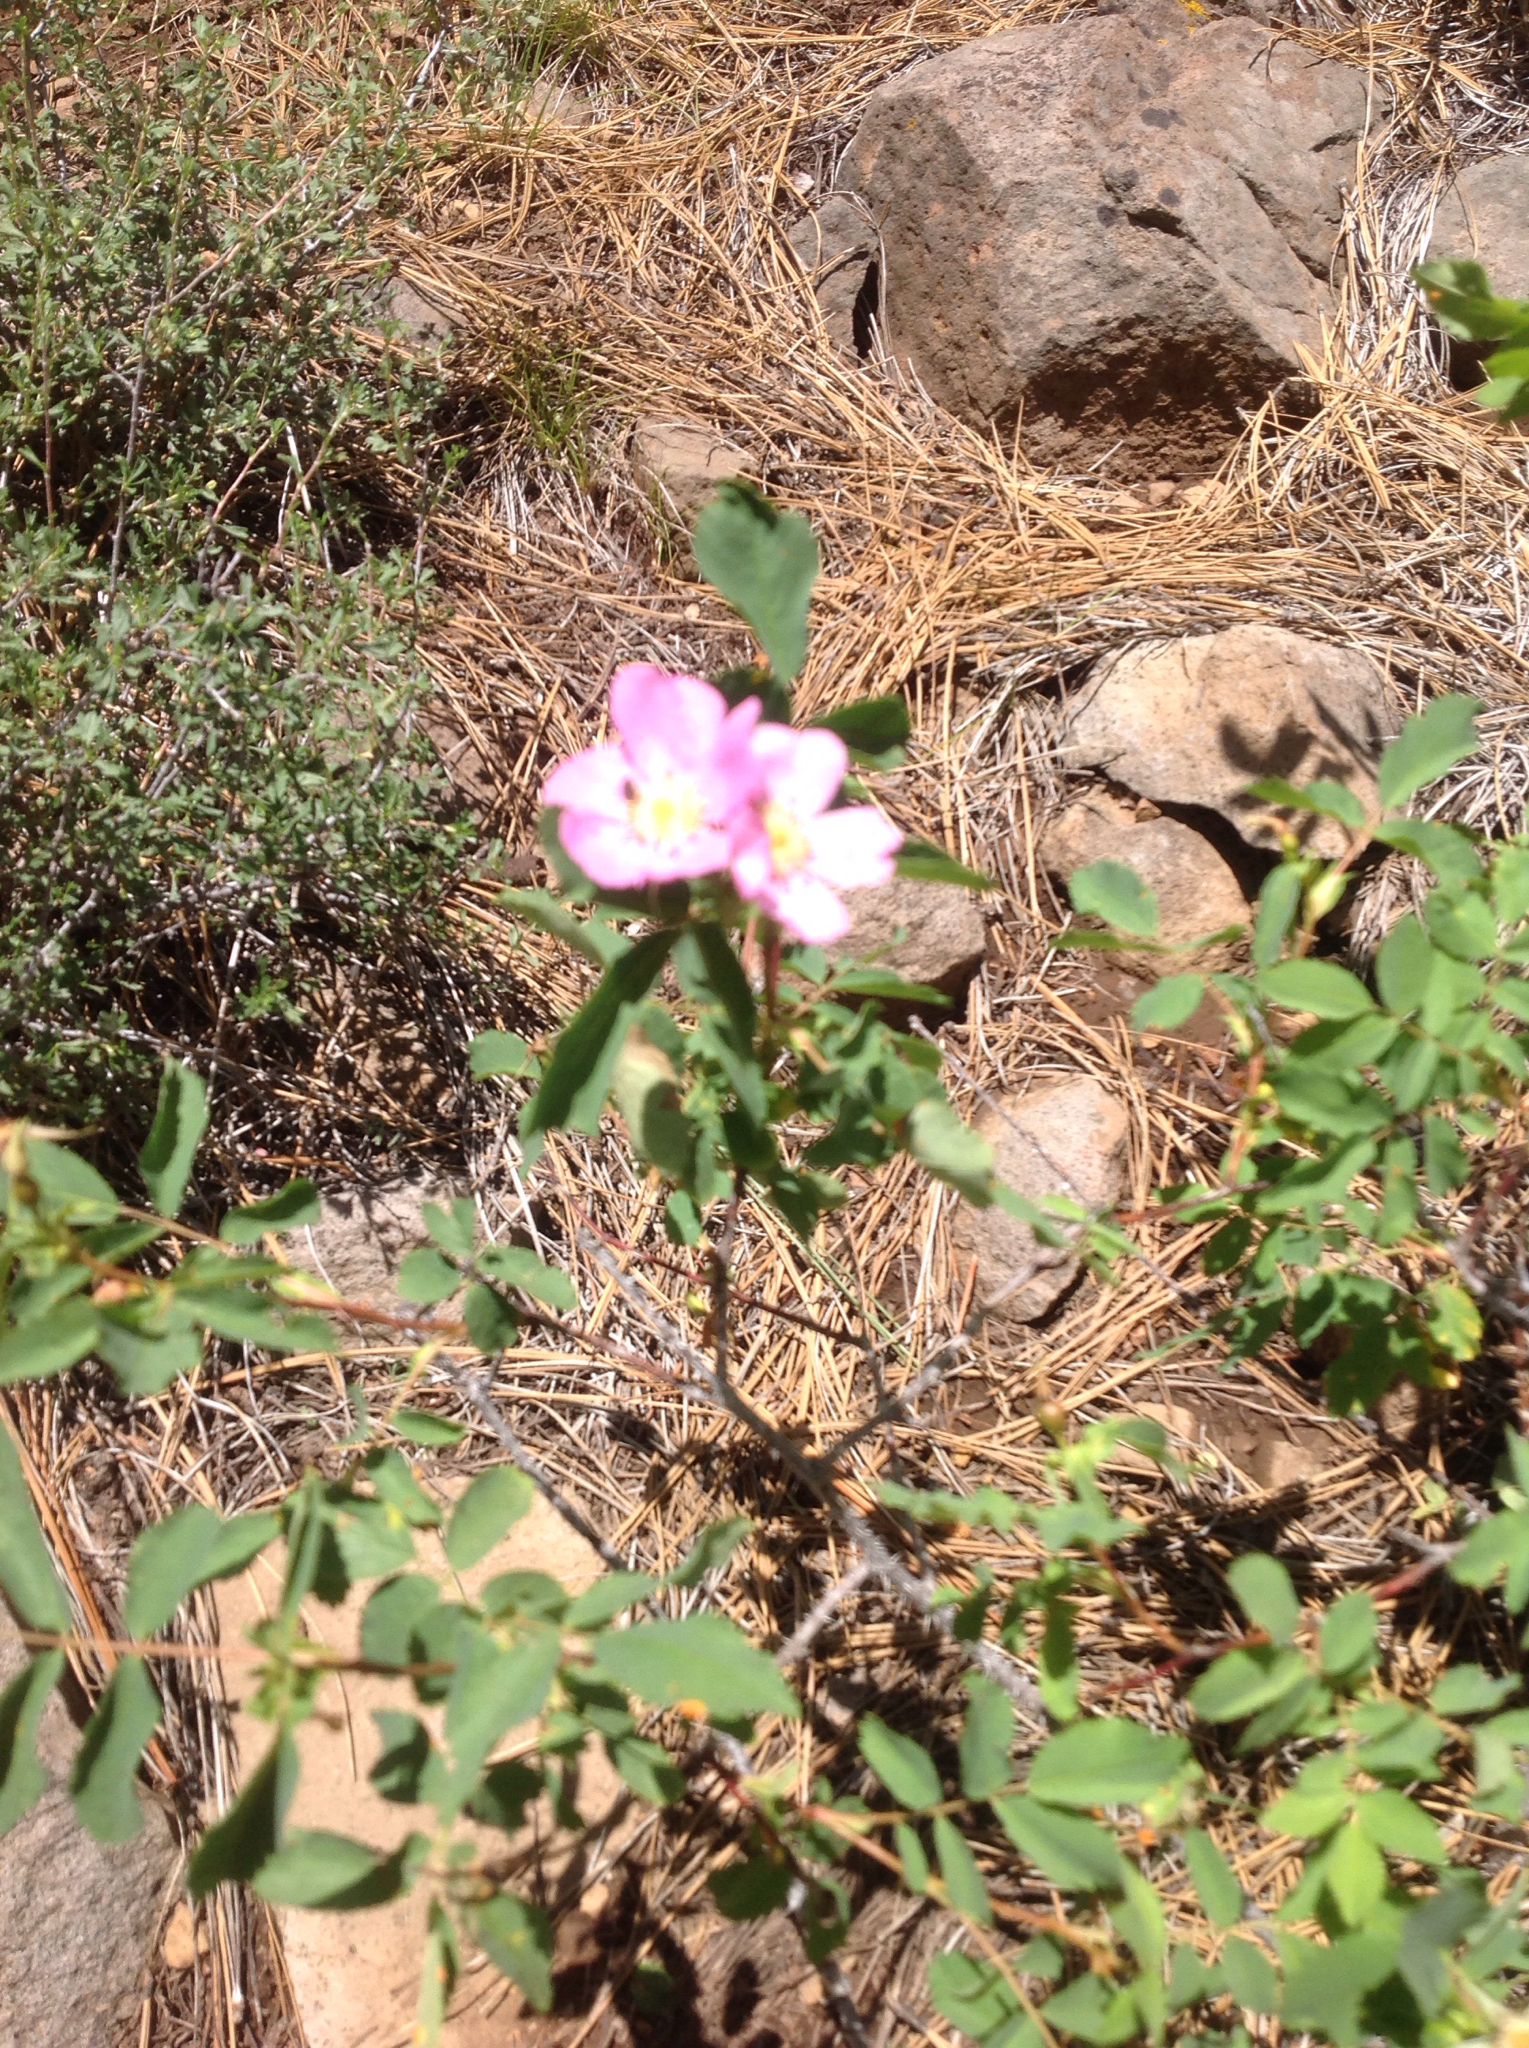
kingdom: Plantae
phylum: Tracheophyta
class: Magnoliopsida
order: Rosales
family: Rosaceae
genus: Rosa
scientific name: Rosa woodsii
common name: Woods's rose
